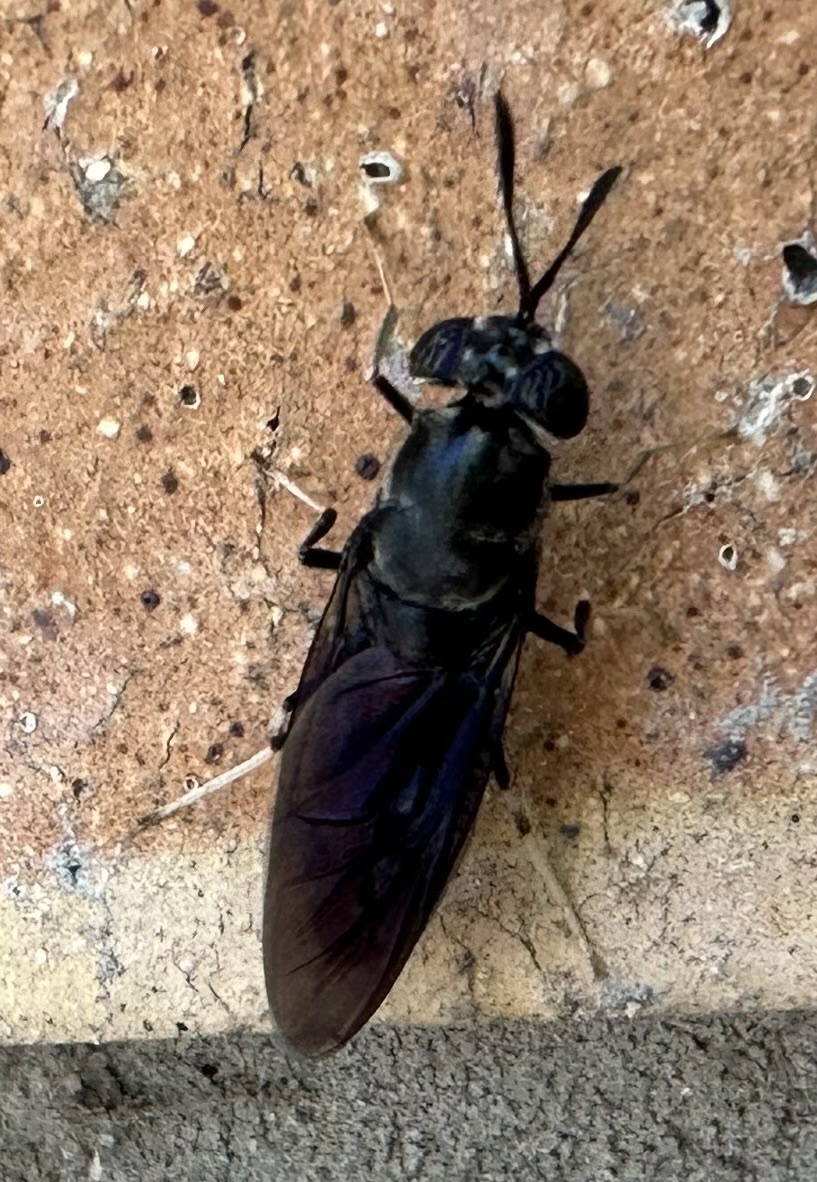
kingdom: Animalia
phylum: Arthropoda
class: Insecta
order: Diptera
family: Stratiomyidae
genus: Hermetia
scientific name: Hermetia illucens
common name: Black soldier fly
